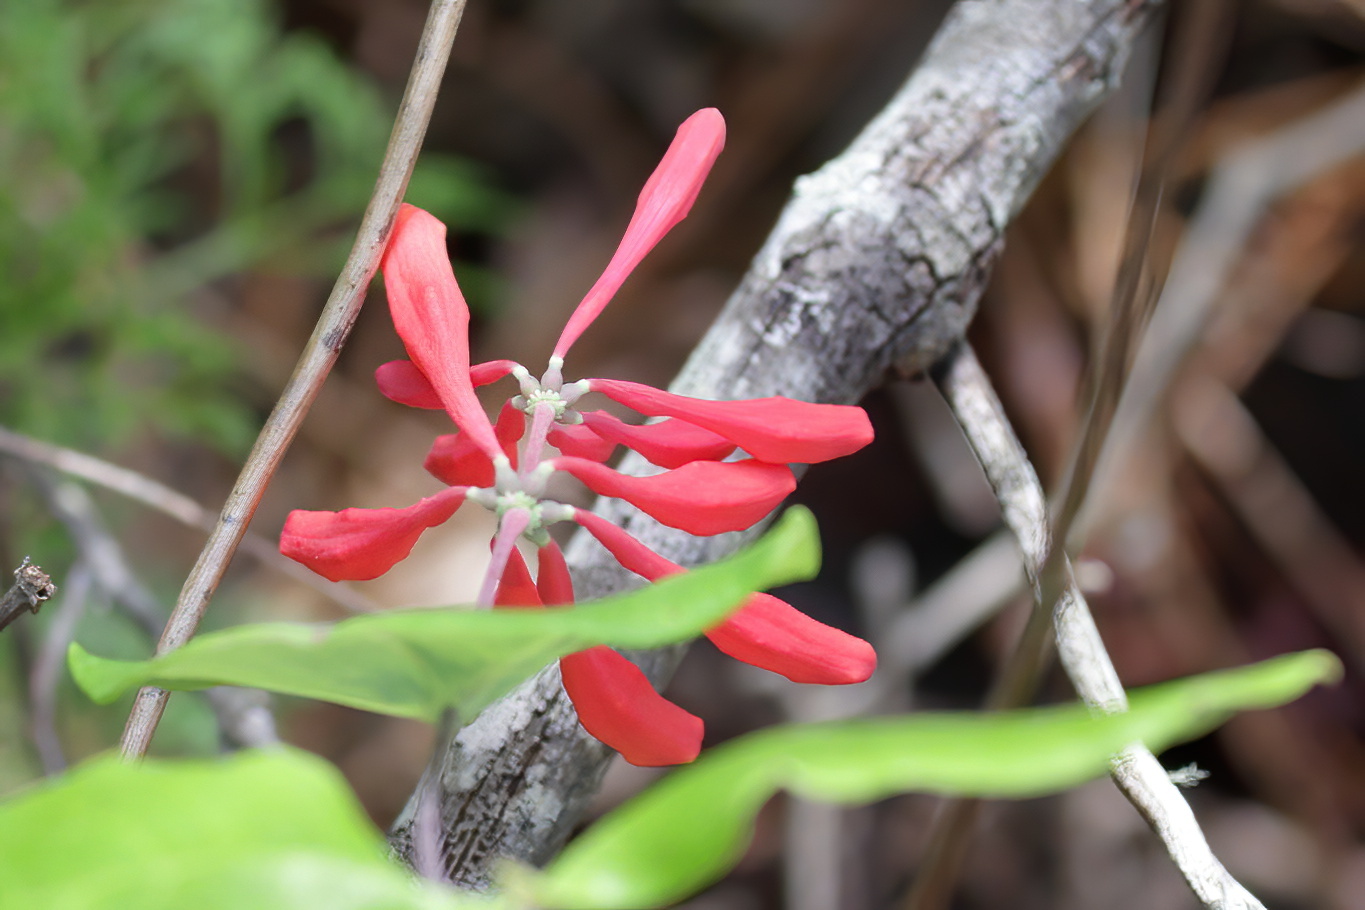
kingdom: Plantae
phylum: Tracheophyta
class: Magnoliopsida
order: Dipsacales
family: Caprifoliaceae
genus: Lonicera
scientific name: Lonicera sempervirens
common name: Coral honeysuckle
